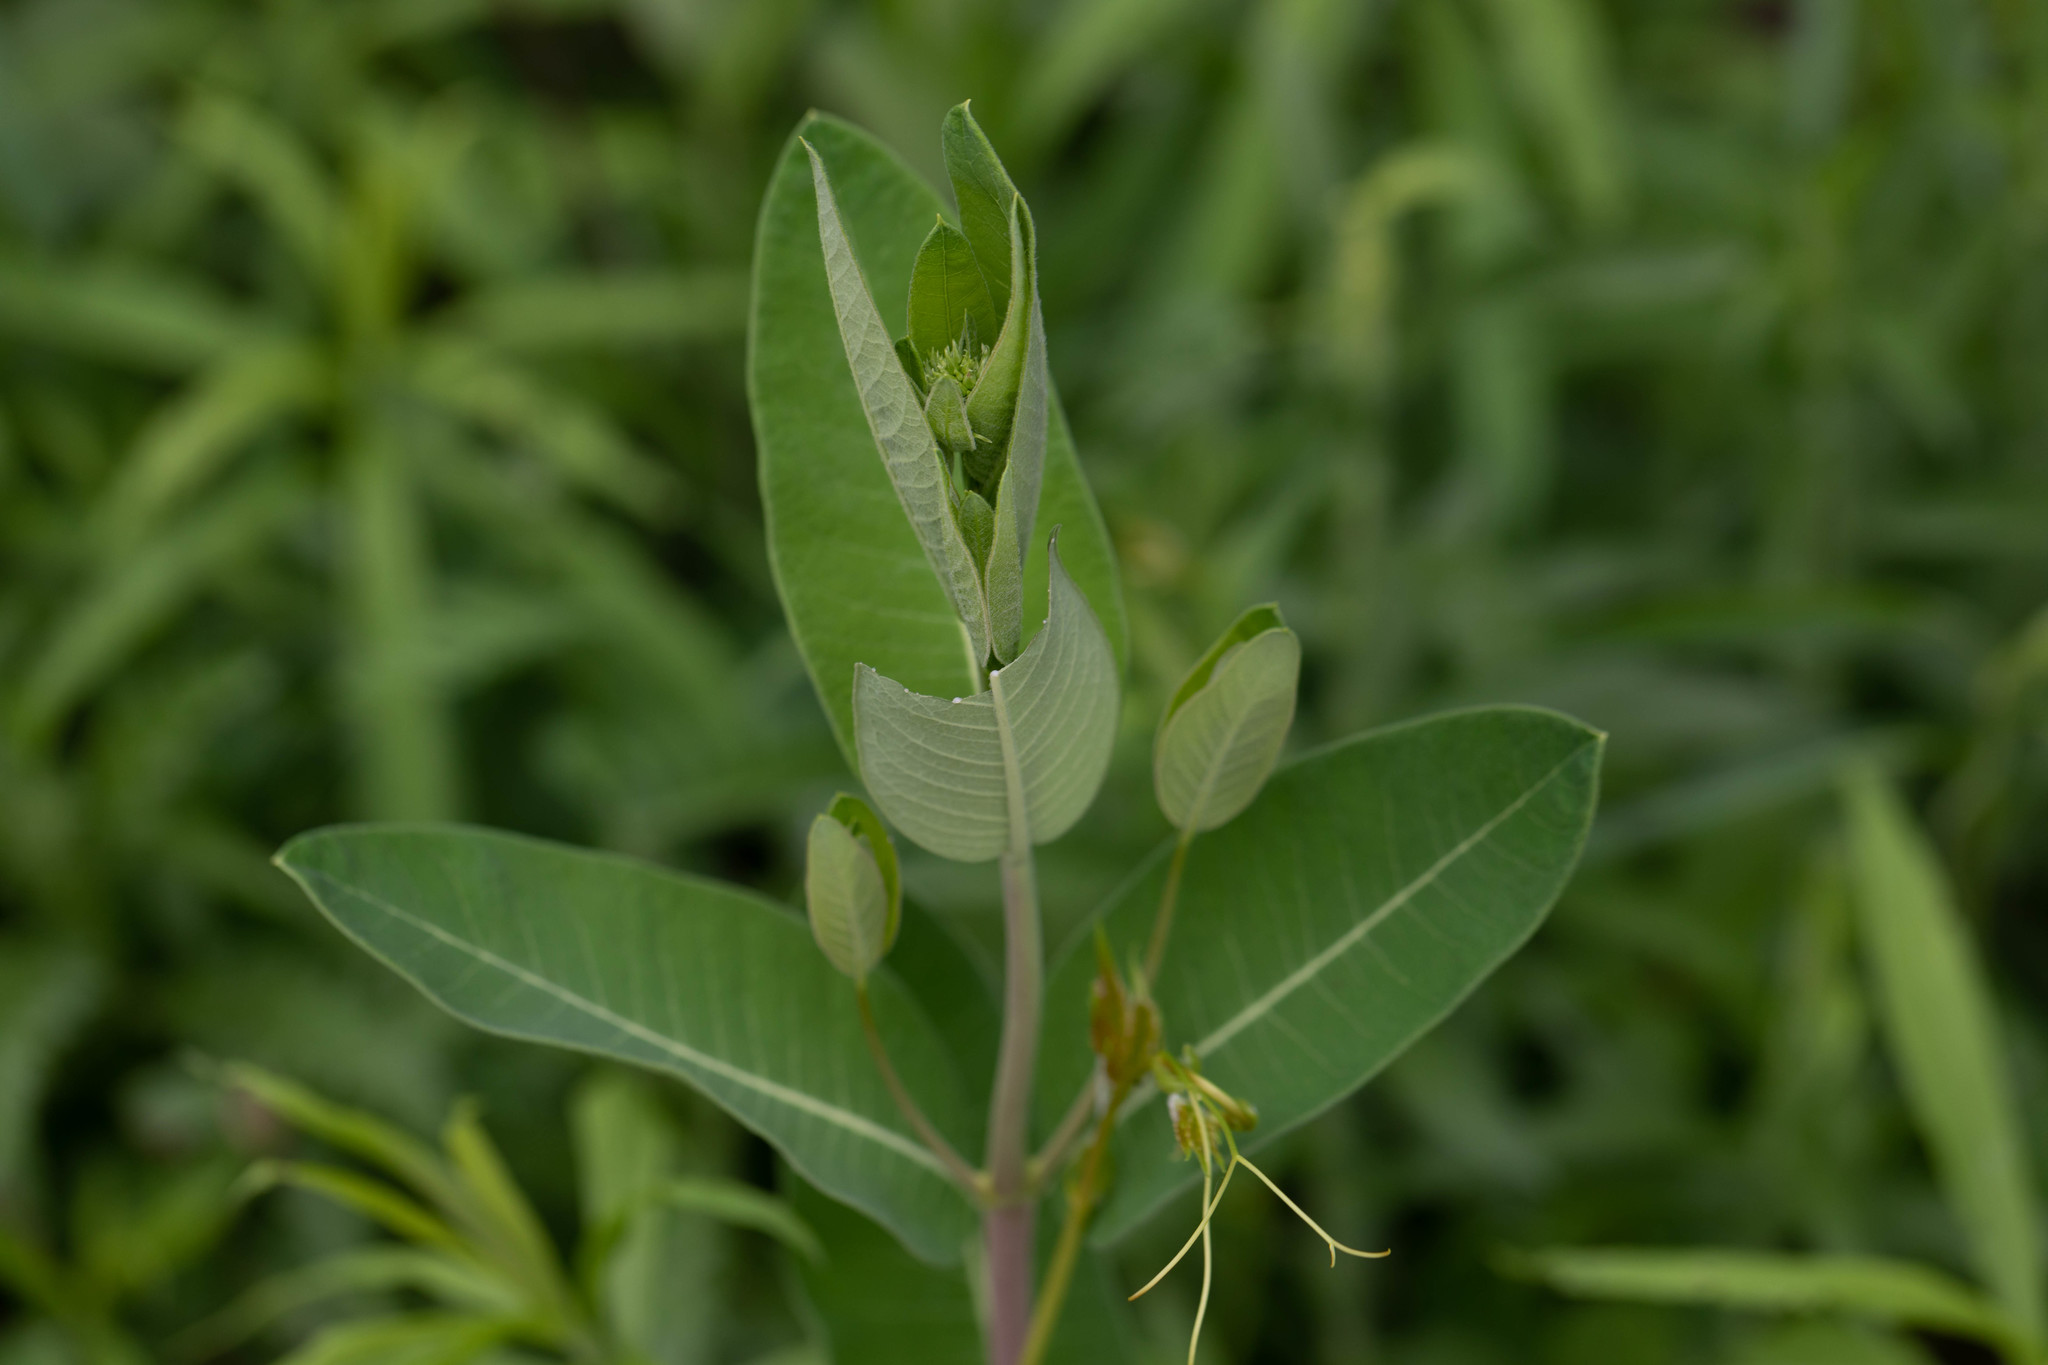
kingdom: Plantae
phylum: Tracheophyta
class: Magnoliopsida
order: Gentianales
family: Apocynaceae
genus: Apocynum
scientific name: Apocynum cannabinum
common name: Hemp dogbane
